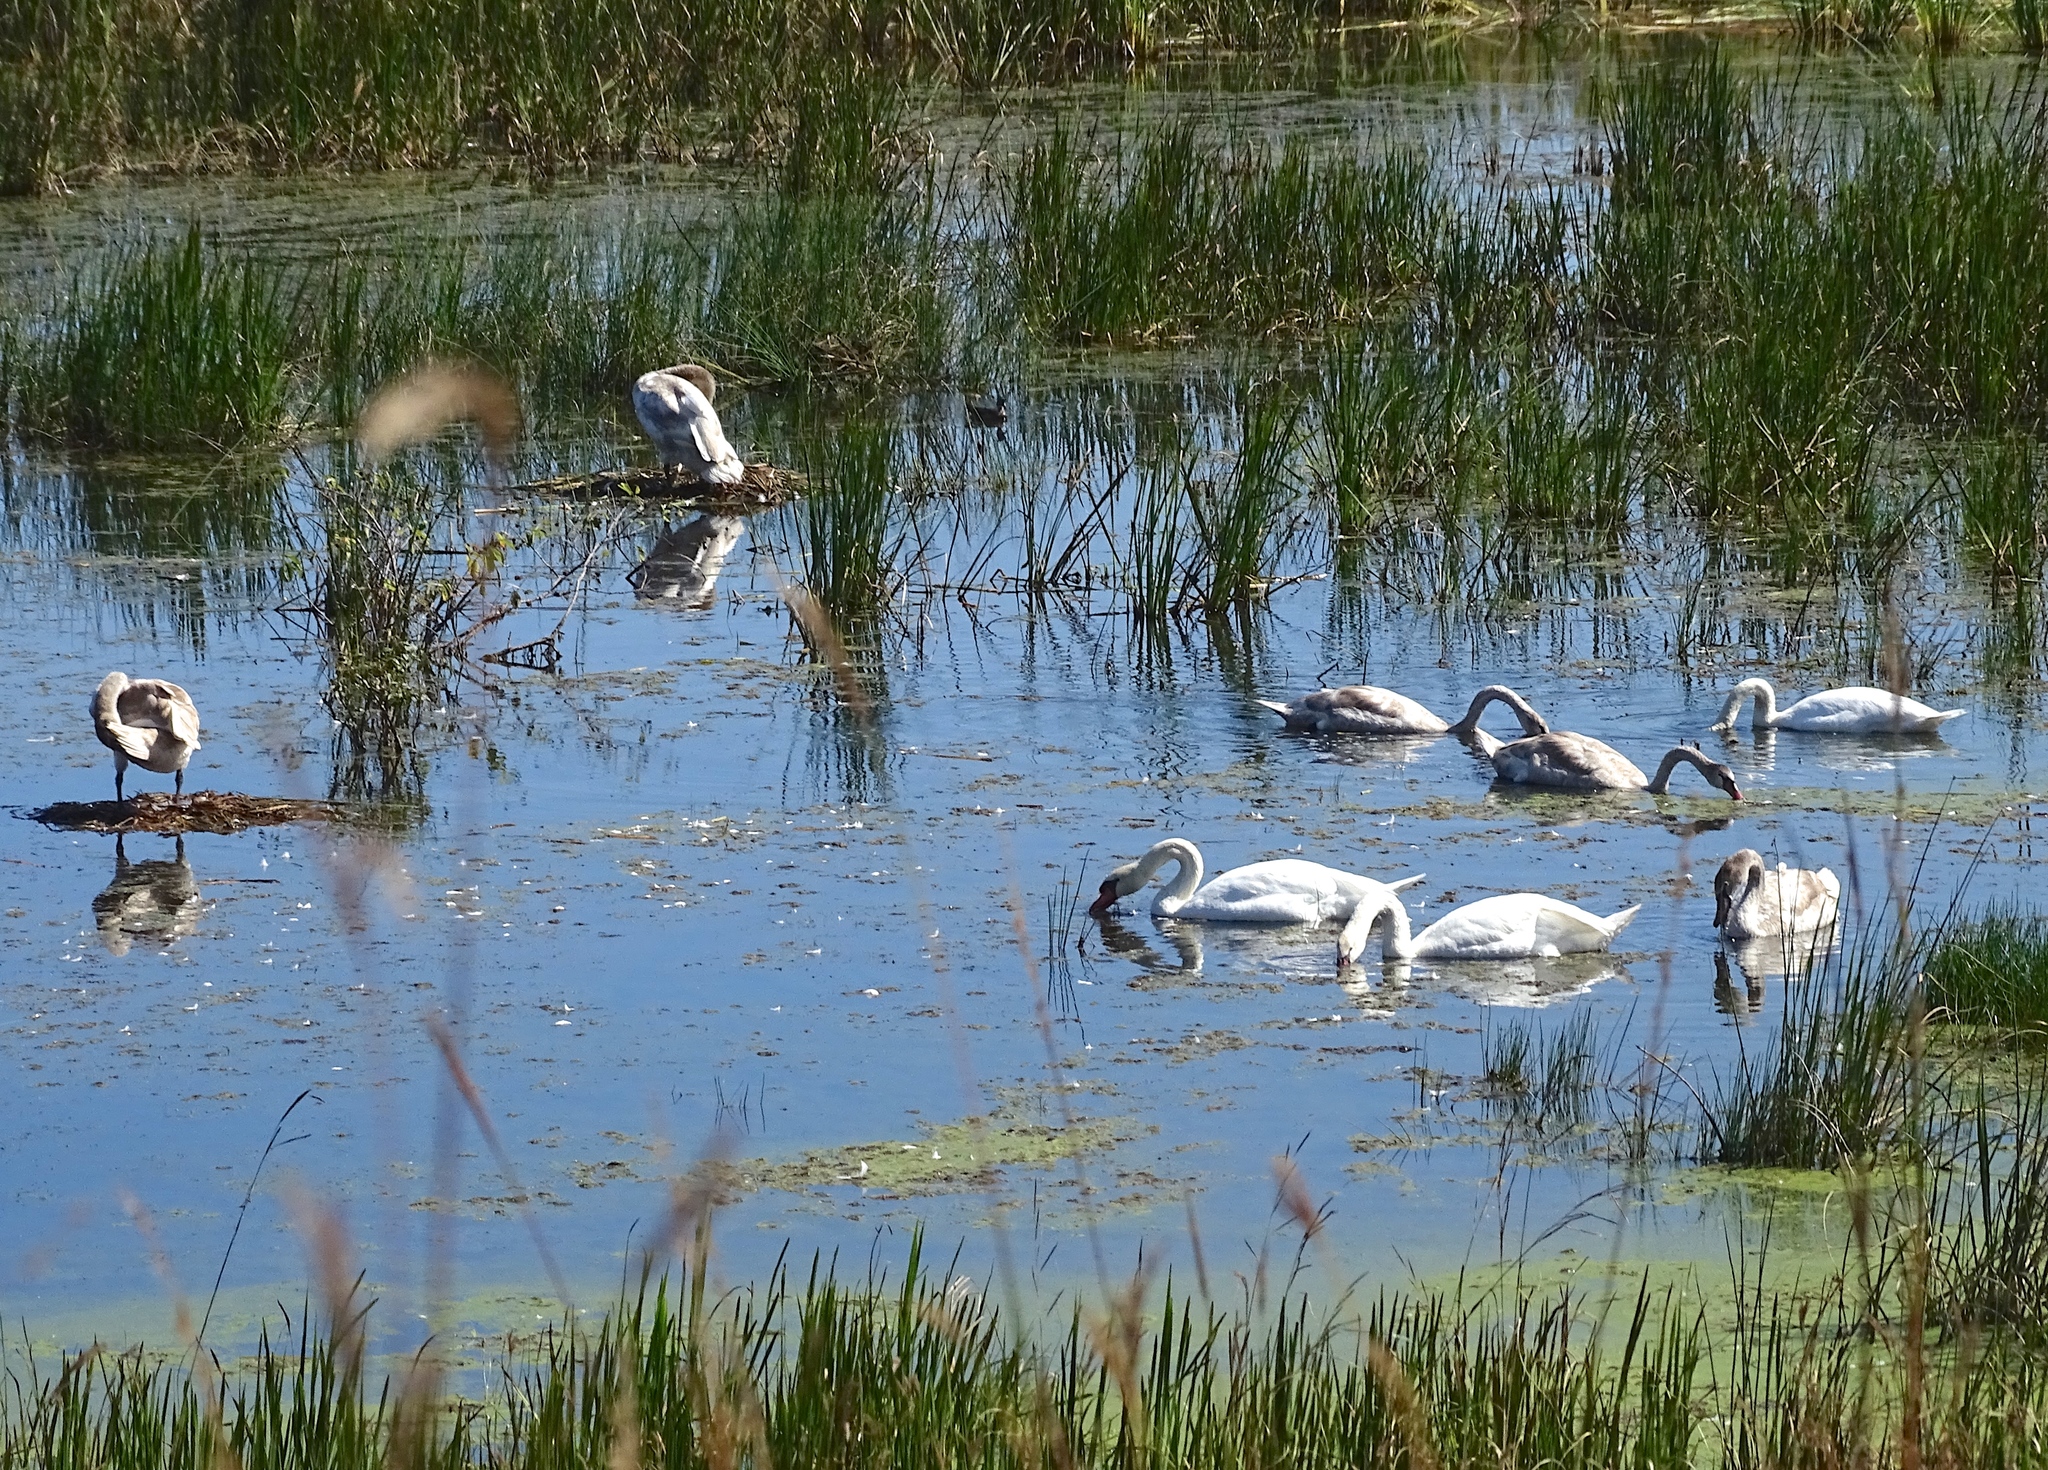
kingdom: Animalia
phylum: Chordata
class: Aves
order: Anseriformes
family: Anatidae
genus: Cygnus
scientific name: Cygnus olor
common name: Mute swan
